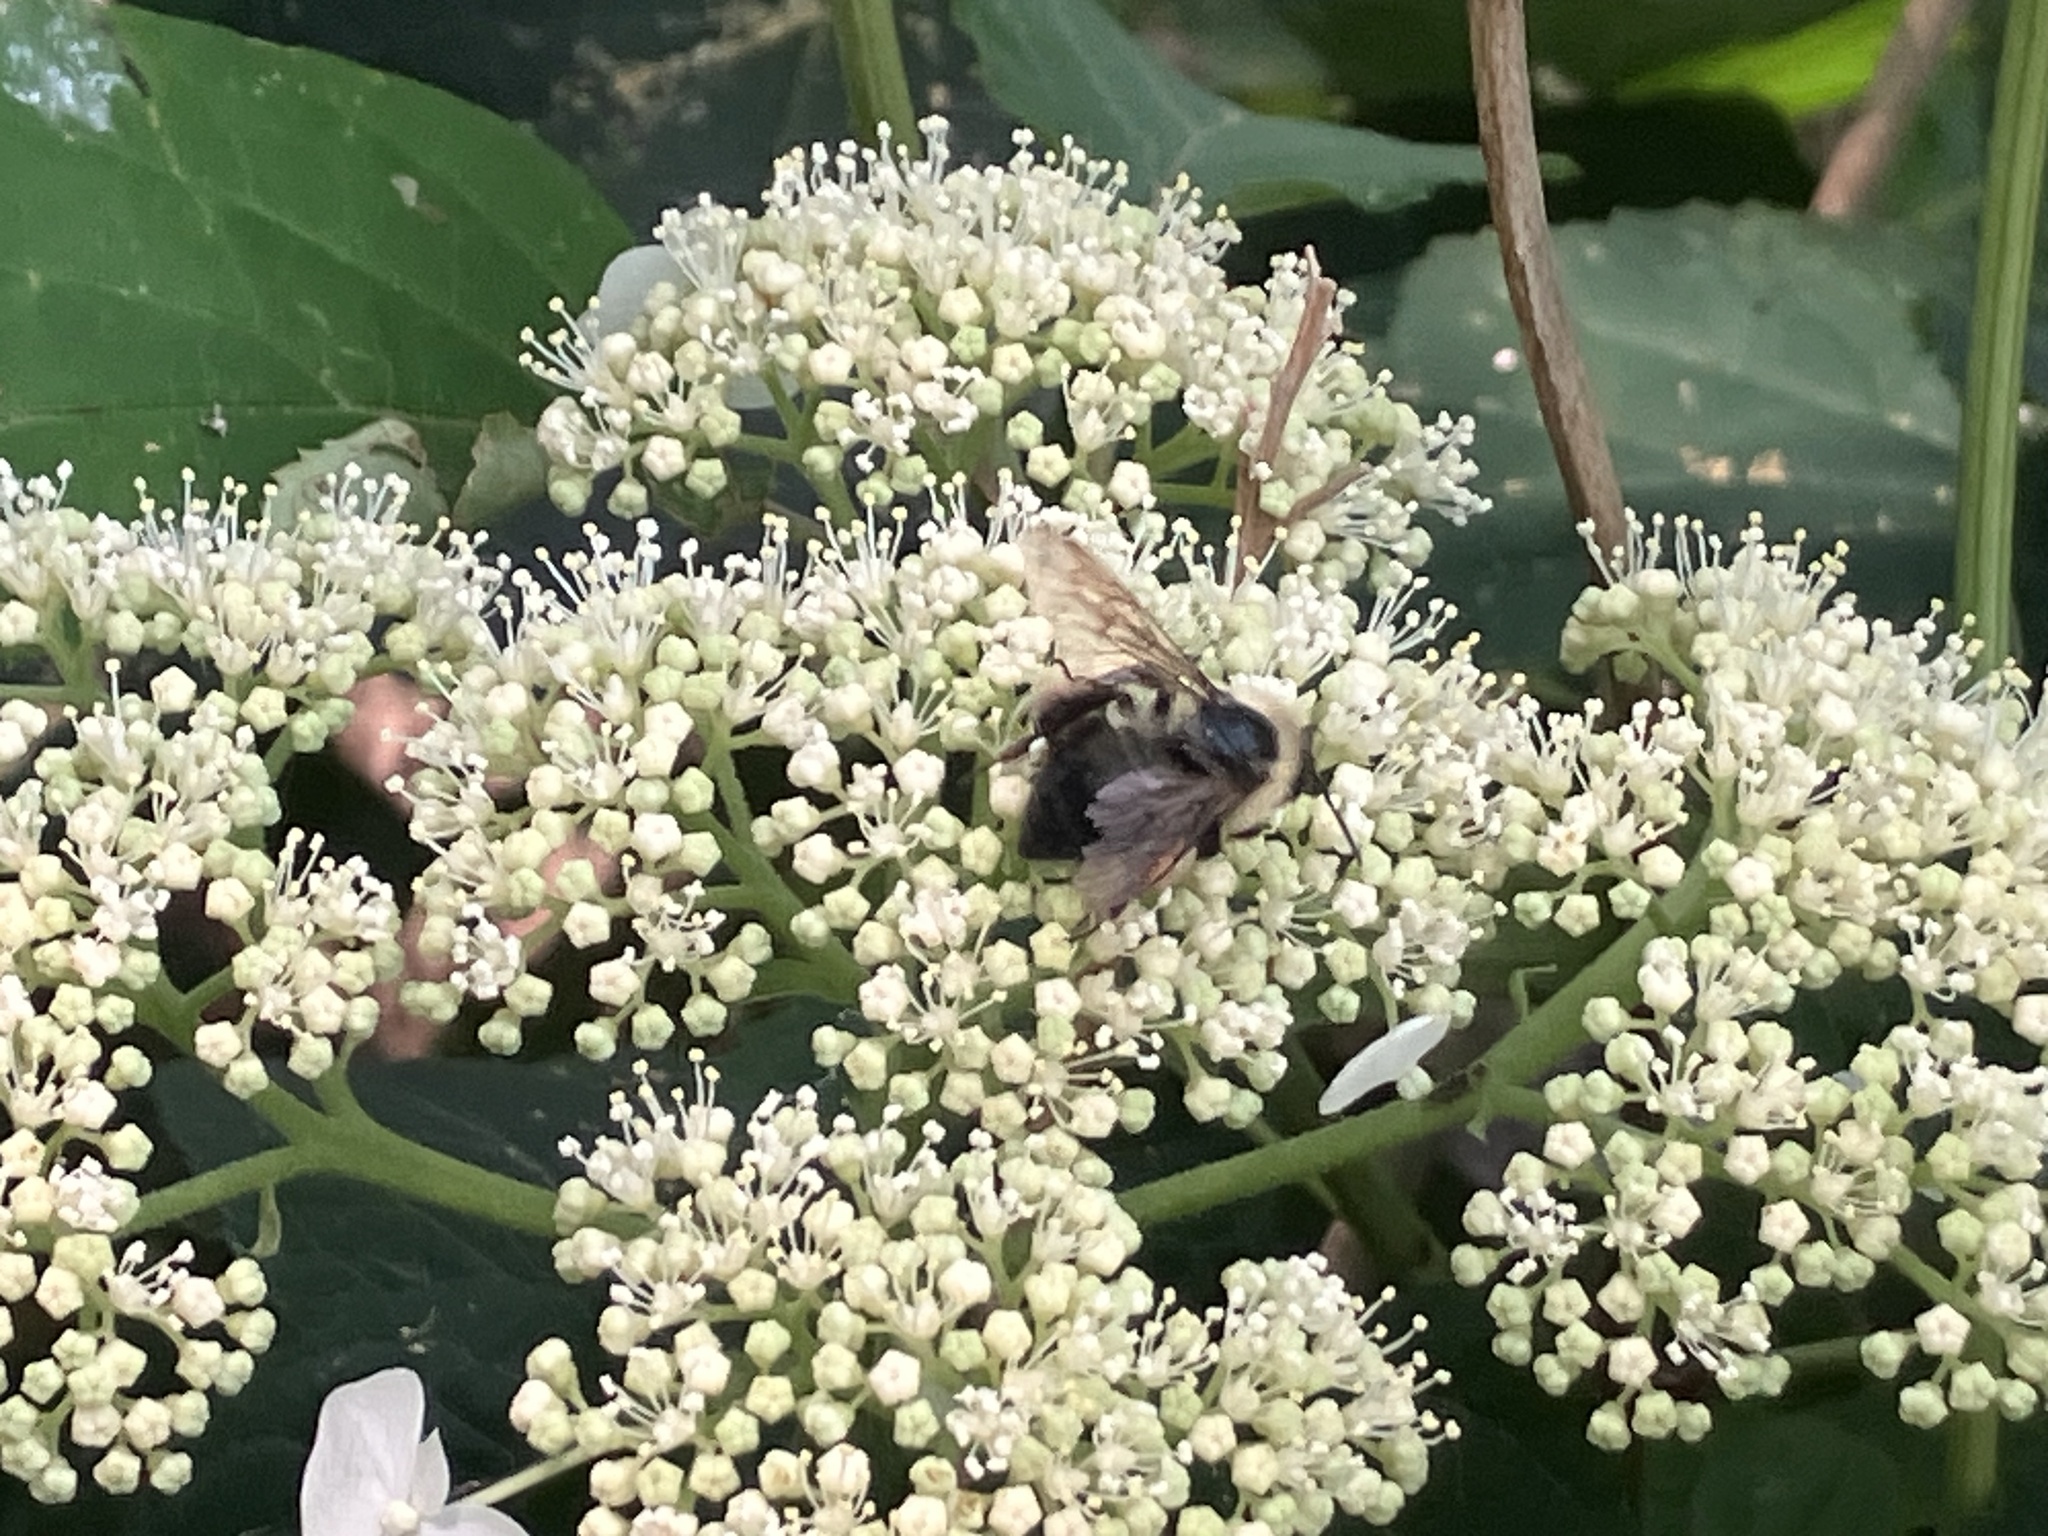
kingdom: Animalia
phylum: Arthropoda
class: Insecta
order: Hymenoptera
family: Apidae
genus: Bombus
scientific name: Bombus bimaculatus
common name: Two-spotted bumble bee
